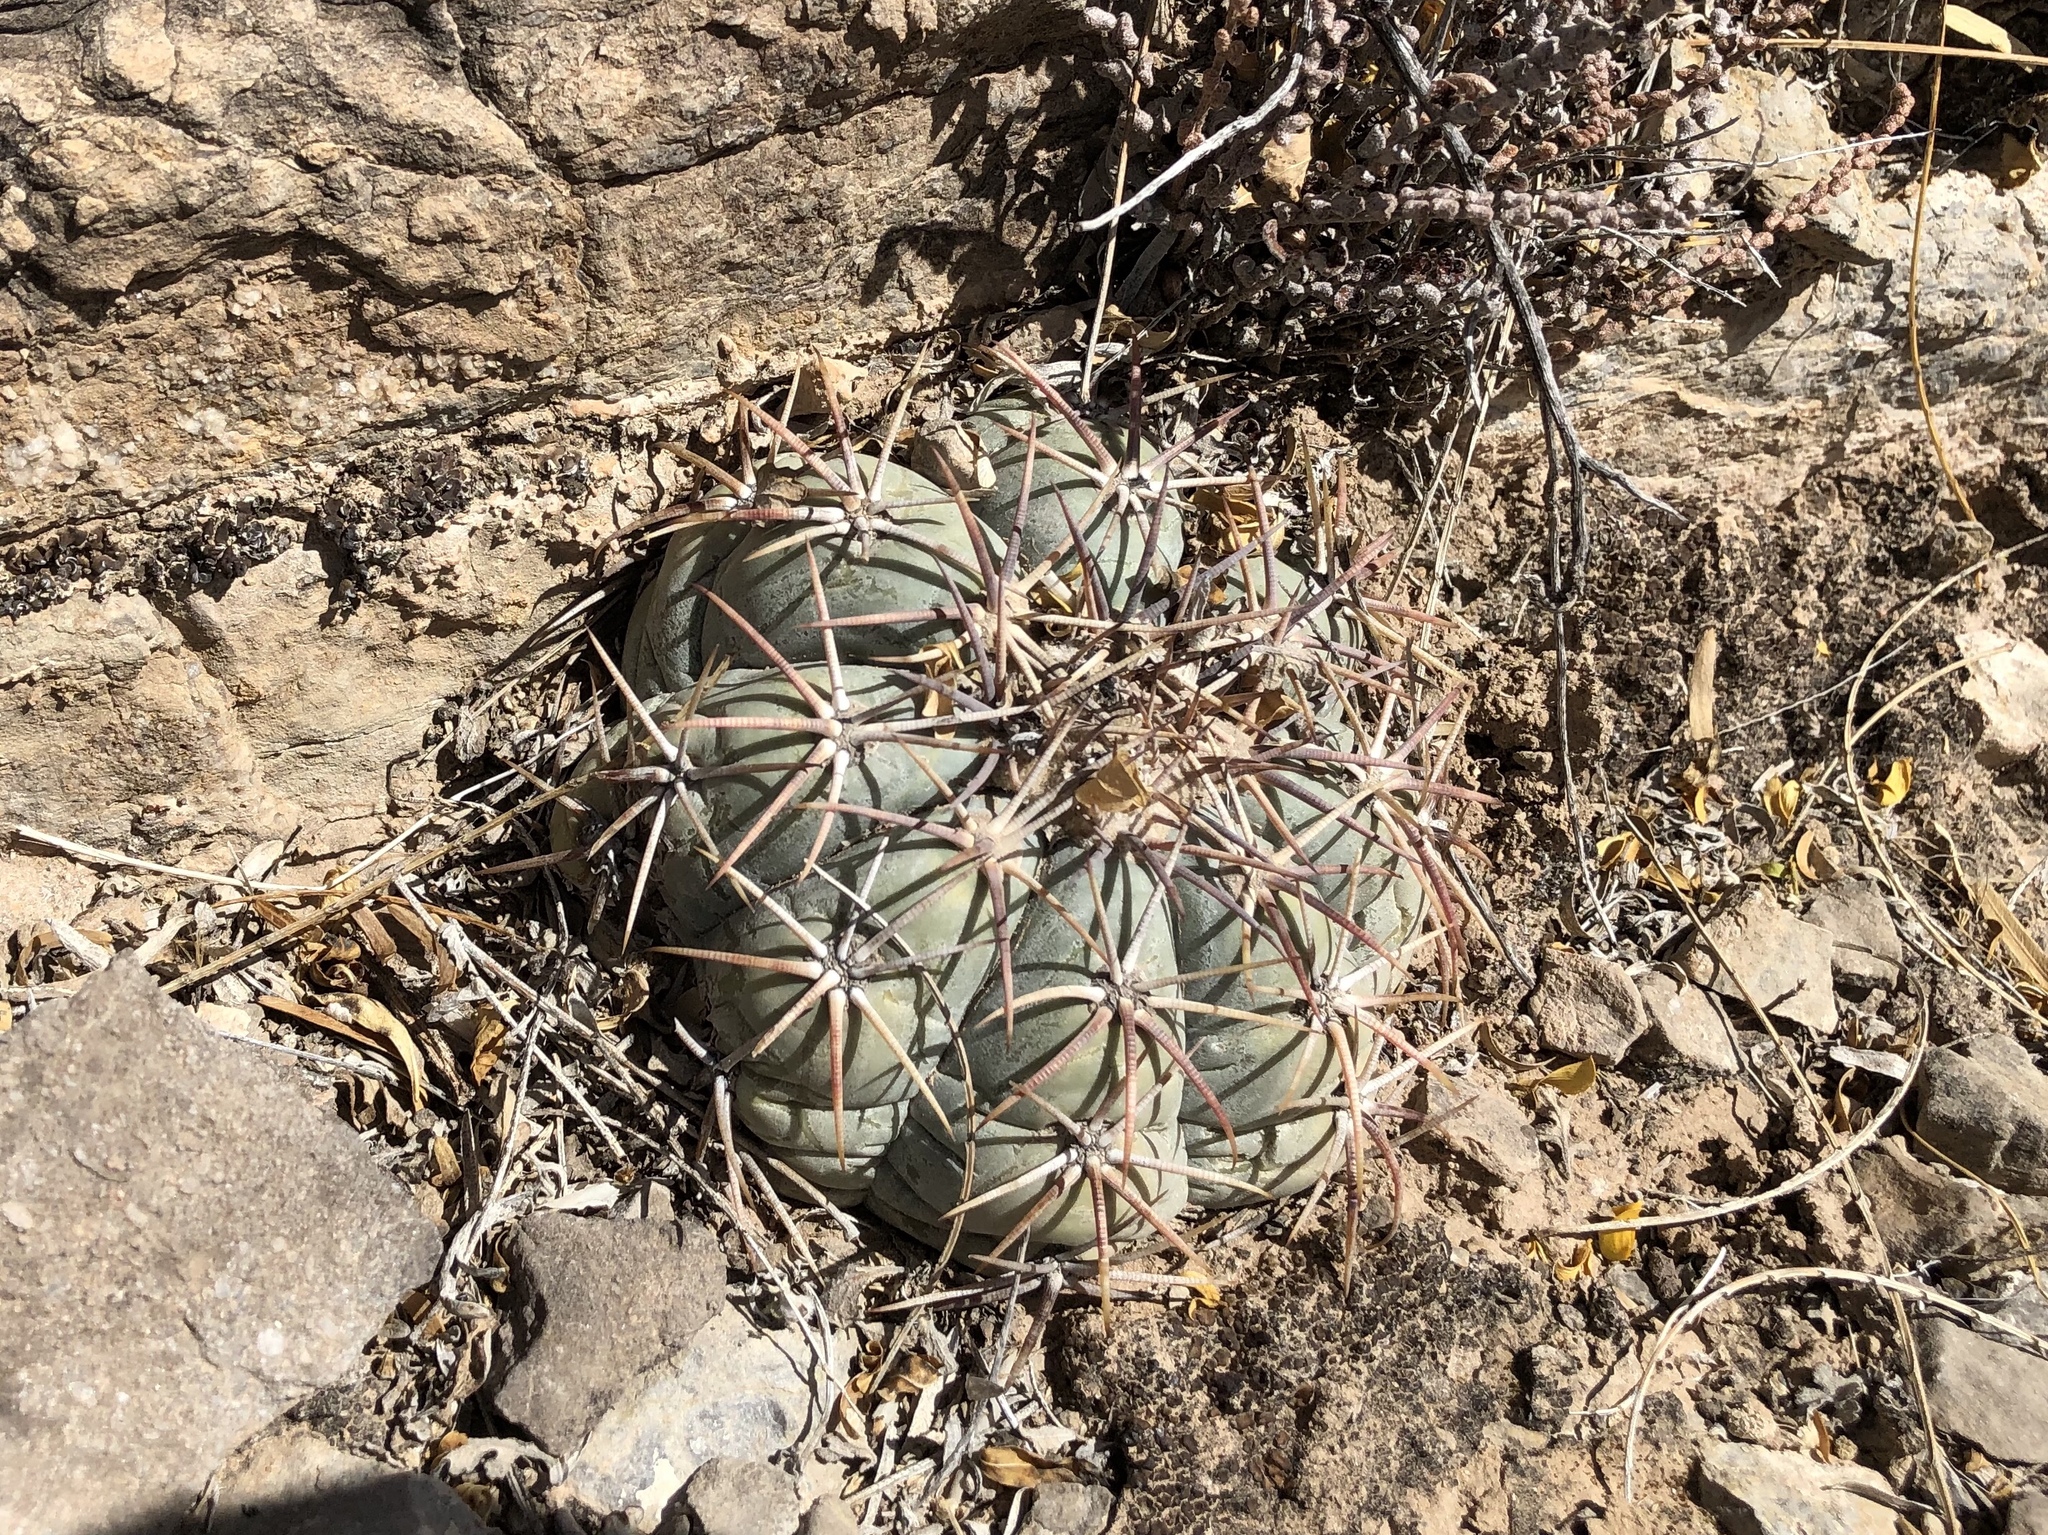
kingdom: Plantae
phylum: Tracheophyta
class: Magnoliopsida
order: Caryophyllales
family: Cactaceae
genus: Echinocactus
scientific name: Echinocactus horizonthalonius
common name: Devilshead
